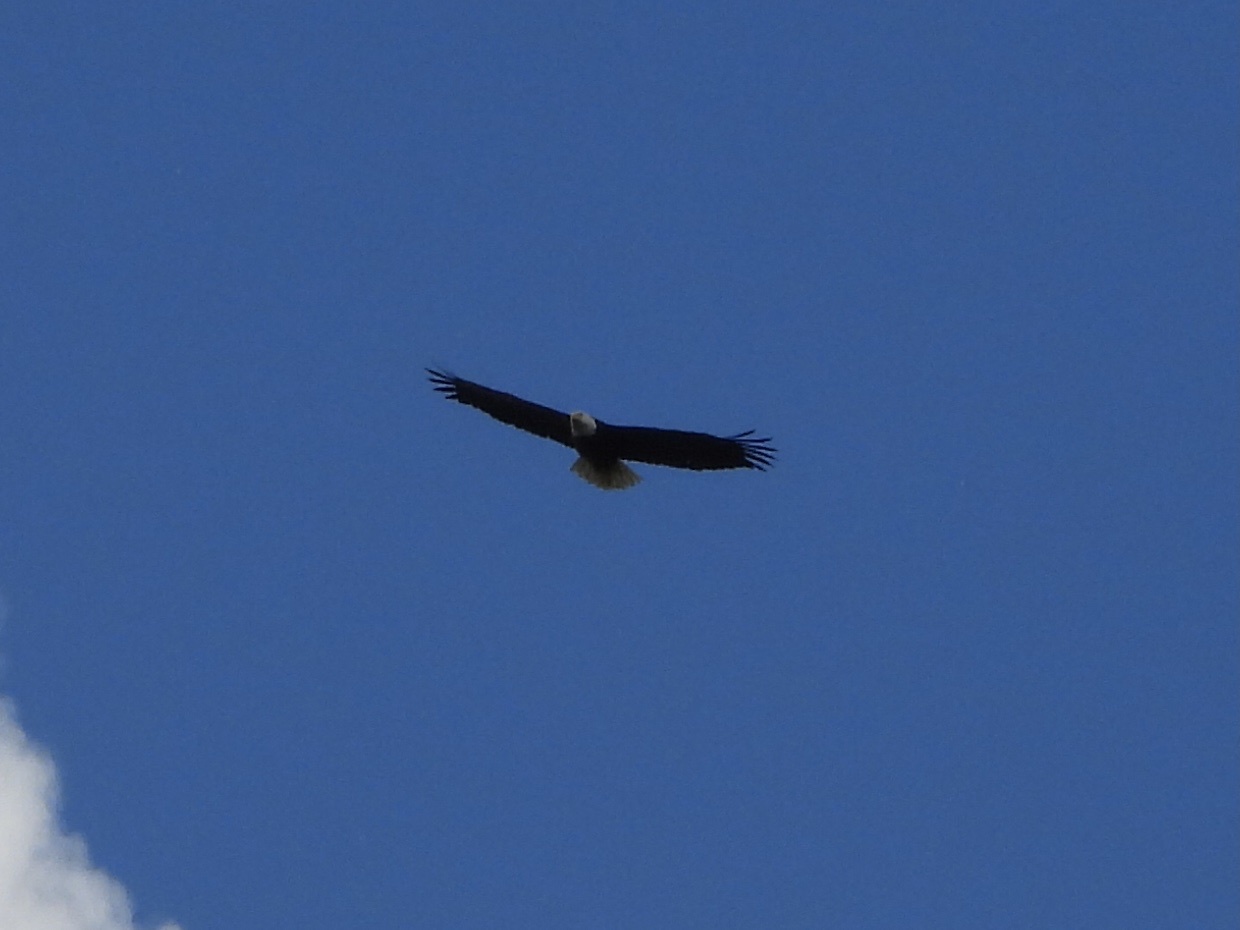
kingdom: Animalia
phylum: Chordata
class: Aves
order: Accipitriformes
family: Accipitridae
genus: Haliaeetus
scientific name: Haliaeetus leucocephalus
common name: Bald eagle
